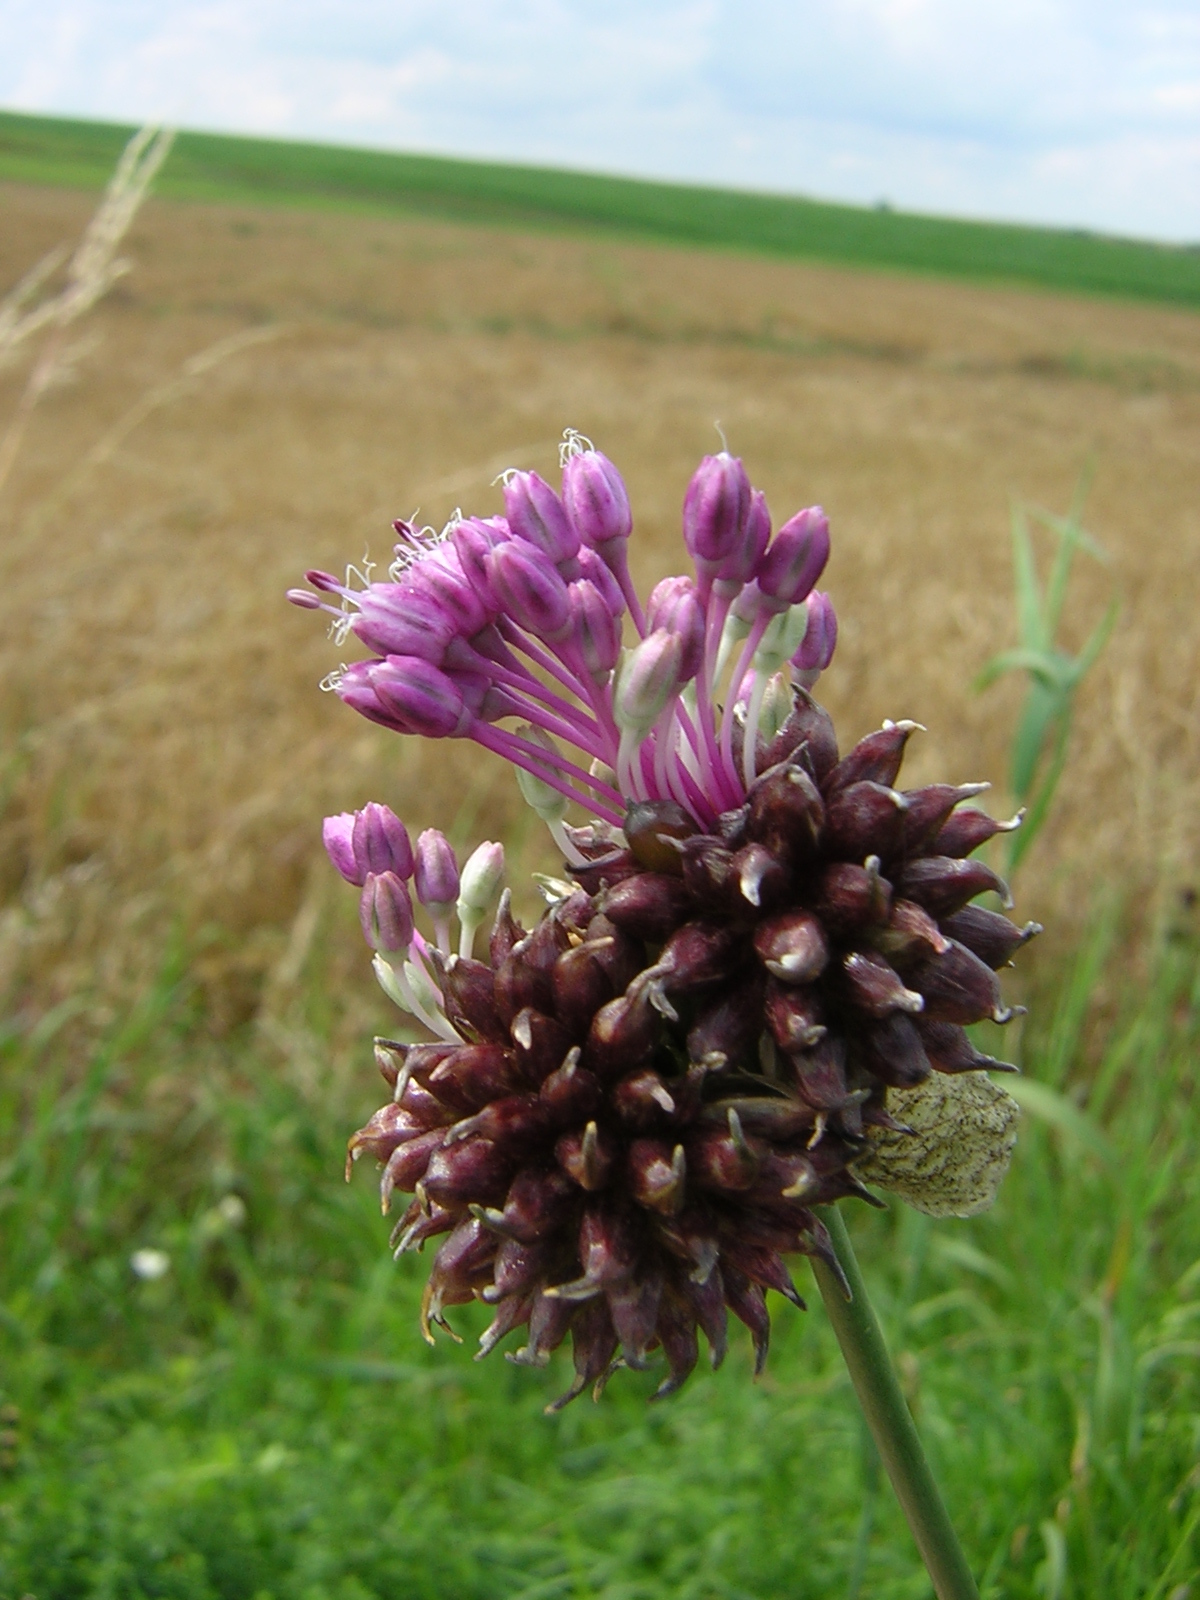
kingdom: Plantae
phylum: Tracheophyta
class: Liliopsida
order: Asparagales
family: Amaryllidaceae
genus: Allium
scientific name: Allium vineale
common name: Crow garlic
